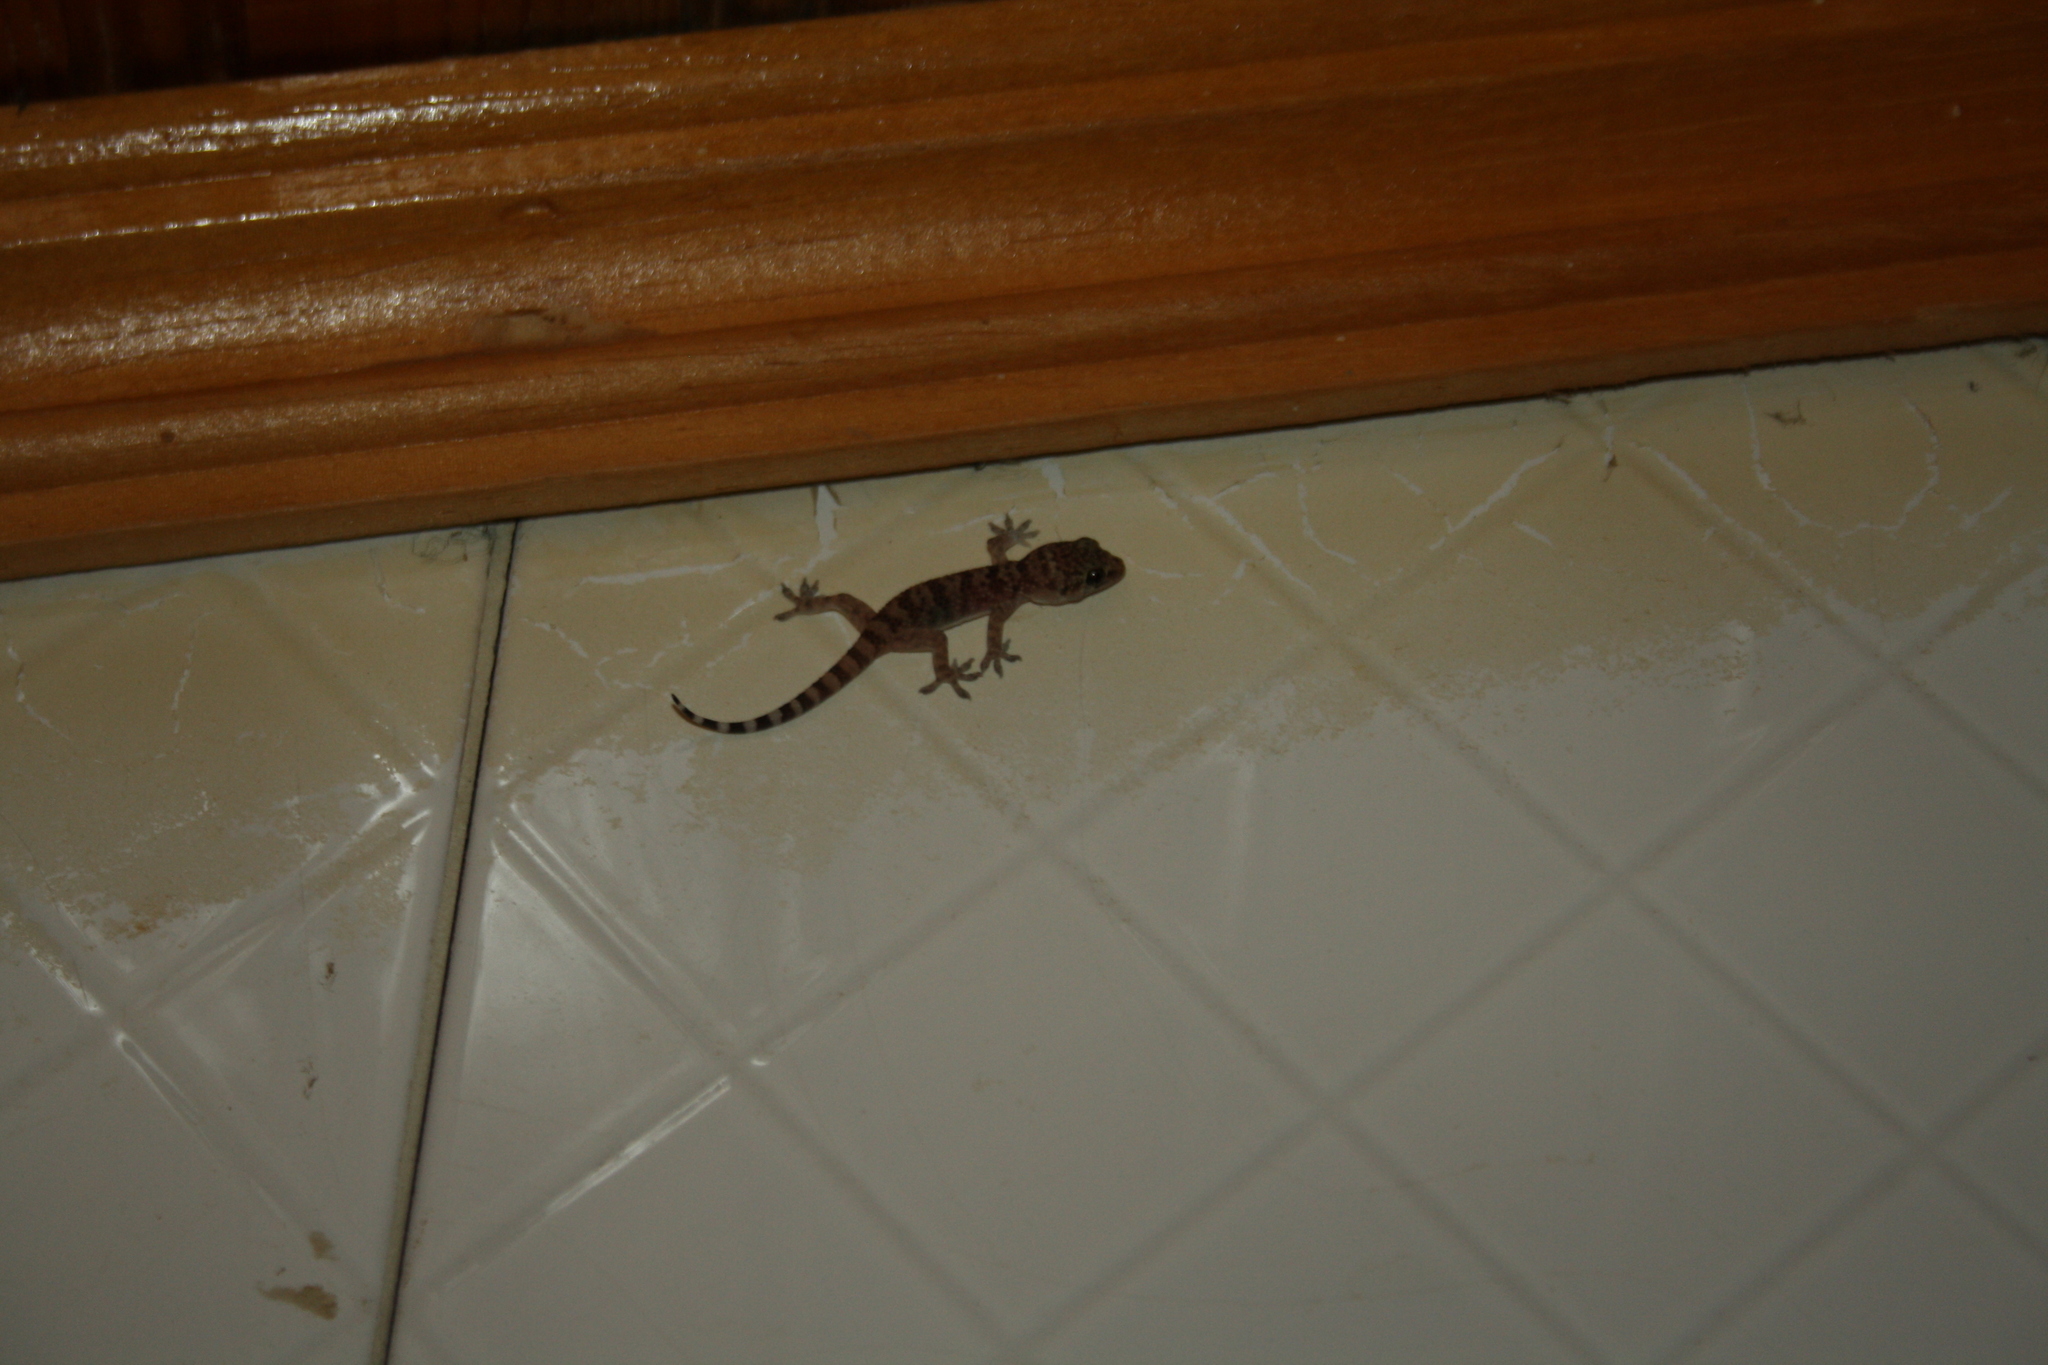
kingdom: Animalia
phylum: Chordata
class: Squamata
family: Gekkonidae
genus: Hemidactylus
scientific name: Hemidactylus turcicus
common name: Turkish gecko
